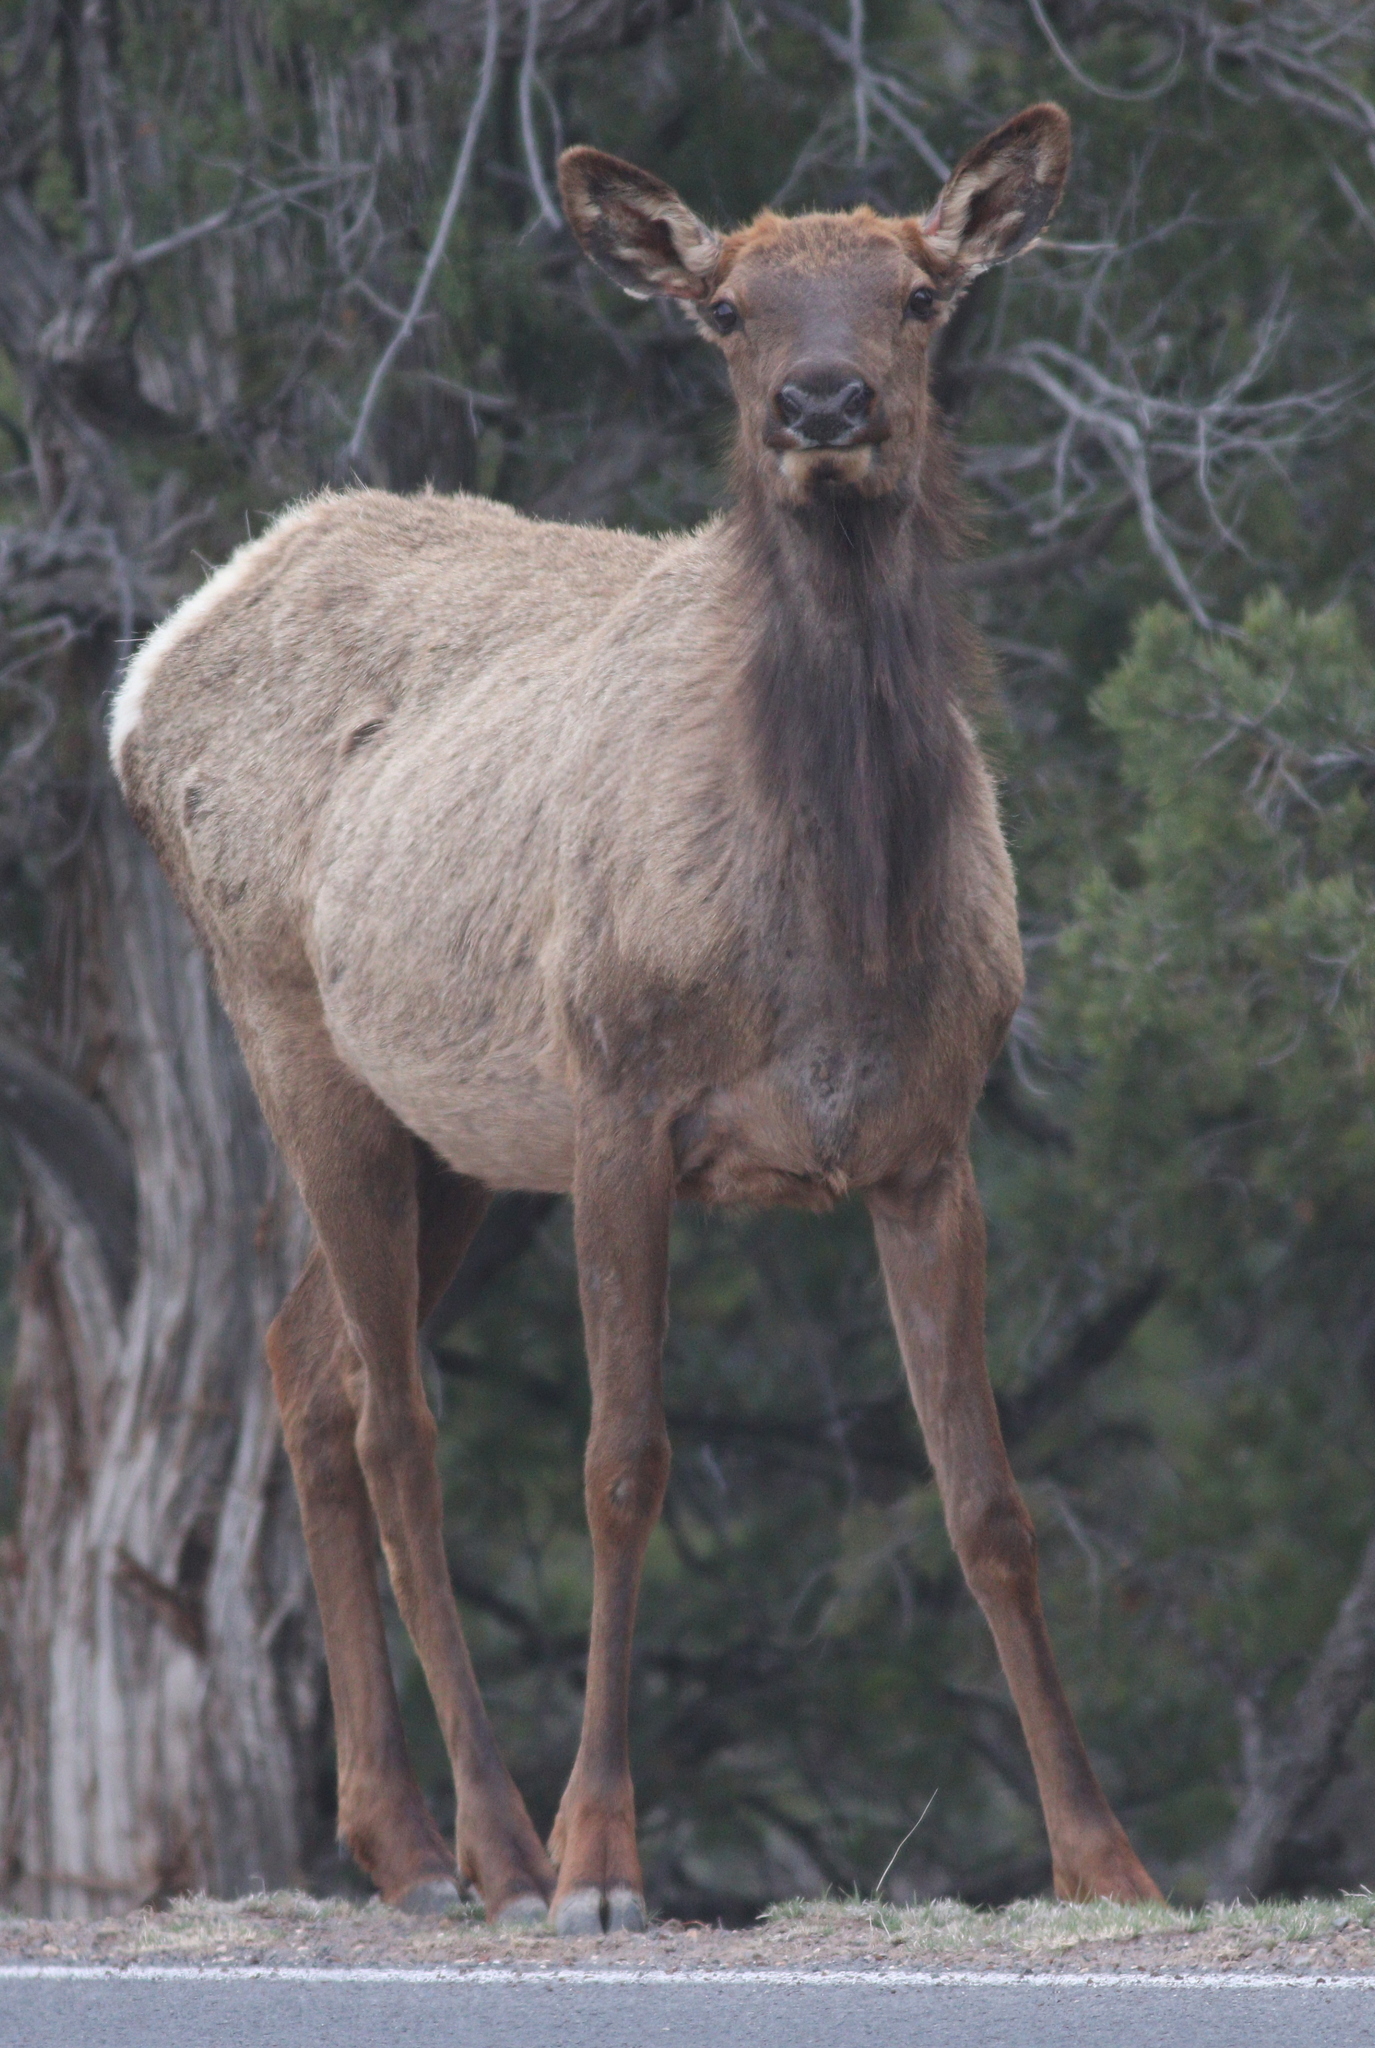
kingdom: Animalia
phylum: Chordata
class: Mammalia
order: Artiodactyla
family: Cervidae
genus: Cervus
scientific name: Cervus elaphus
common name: Red deer
